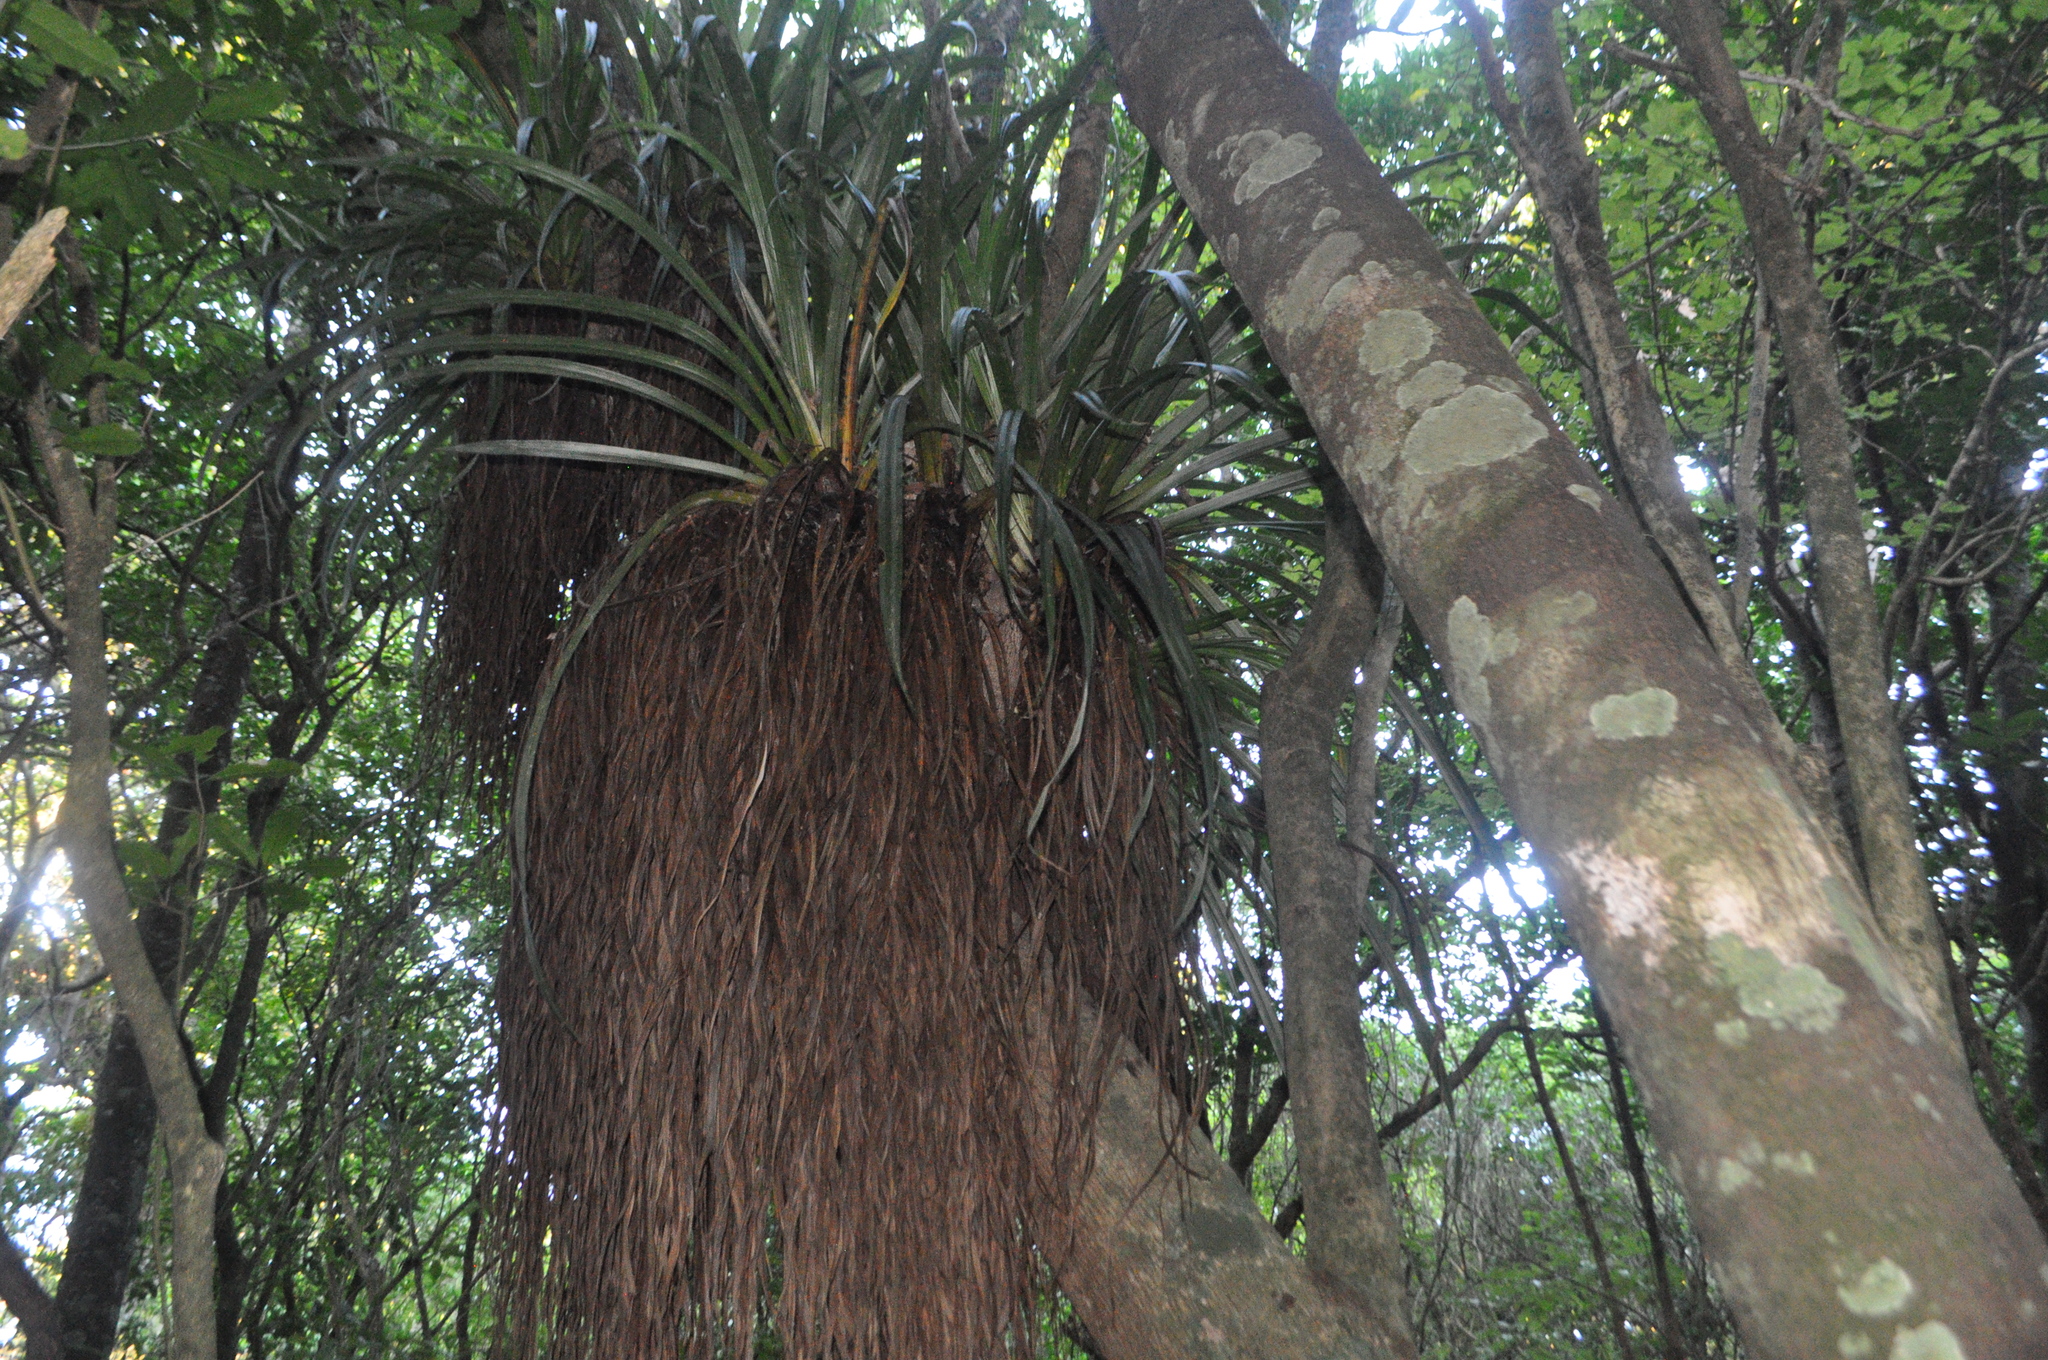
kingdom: Plantae
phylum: Tracheophyta
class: Liliopsida
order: Asparagales
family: Asteliaceae
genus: Astelia
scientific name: Astelia hastata
